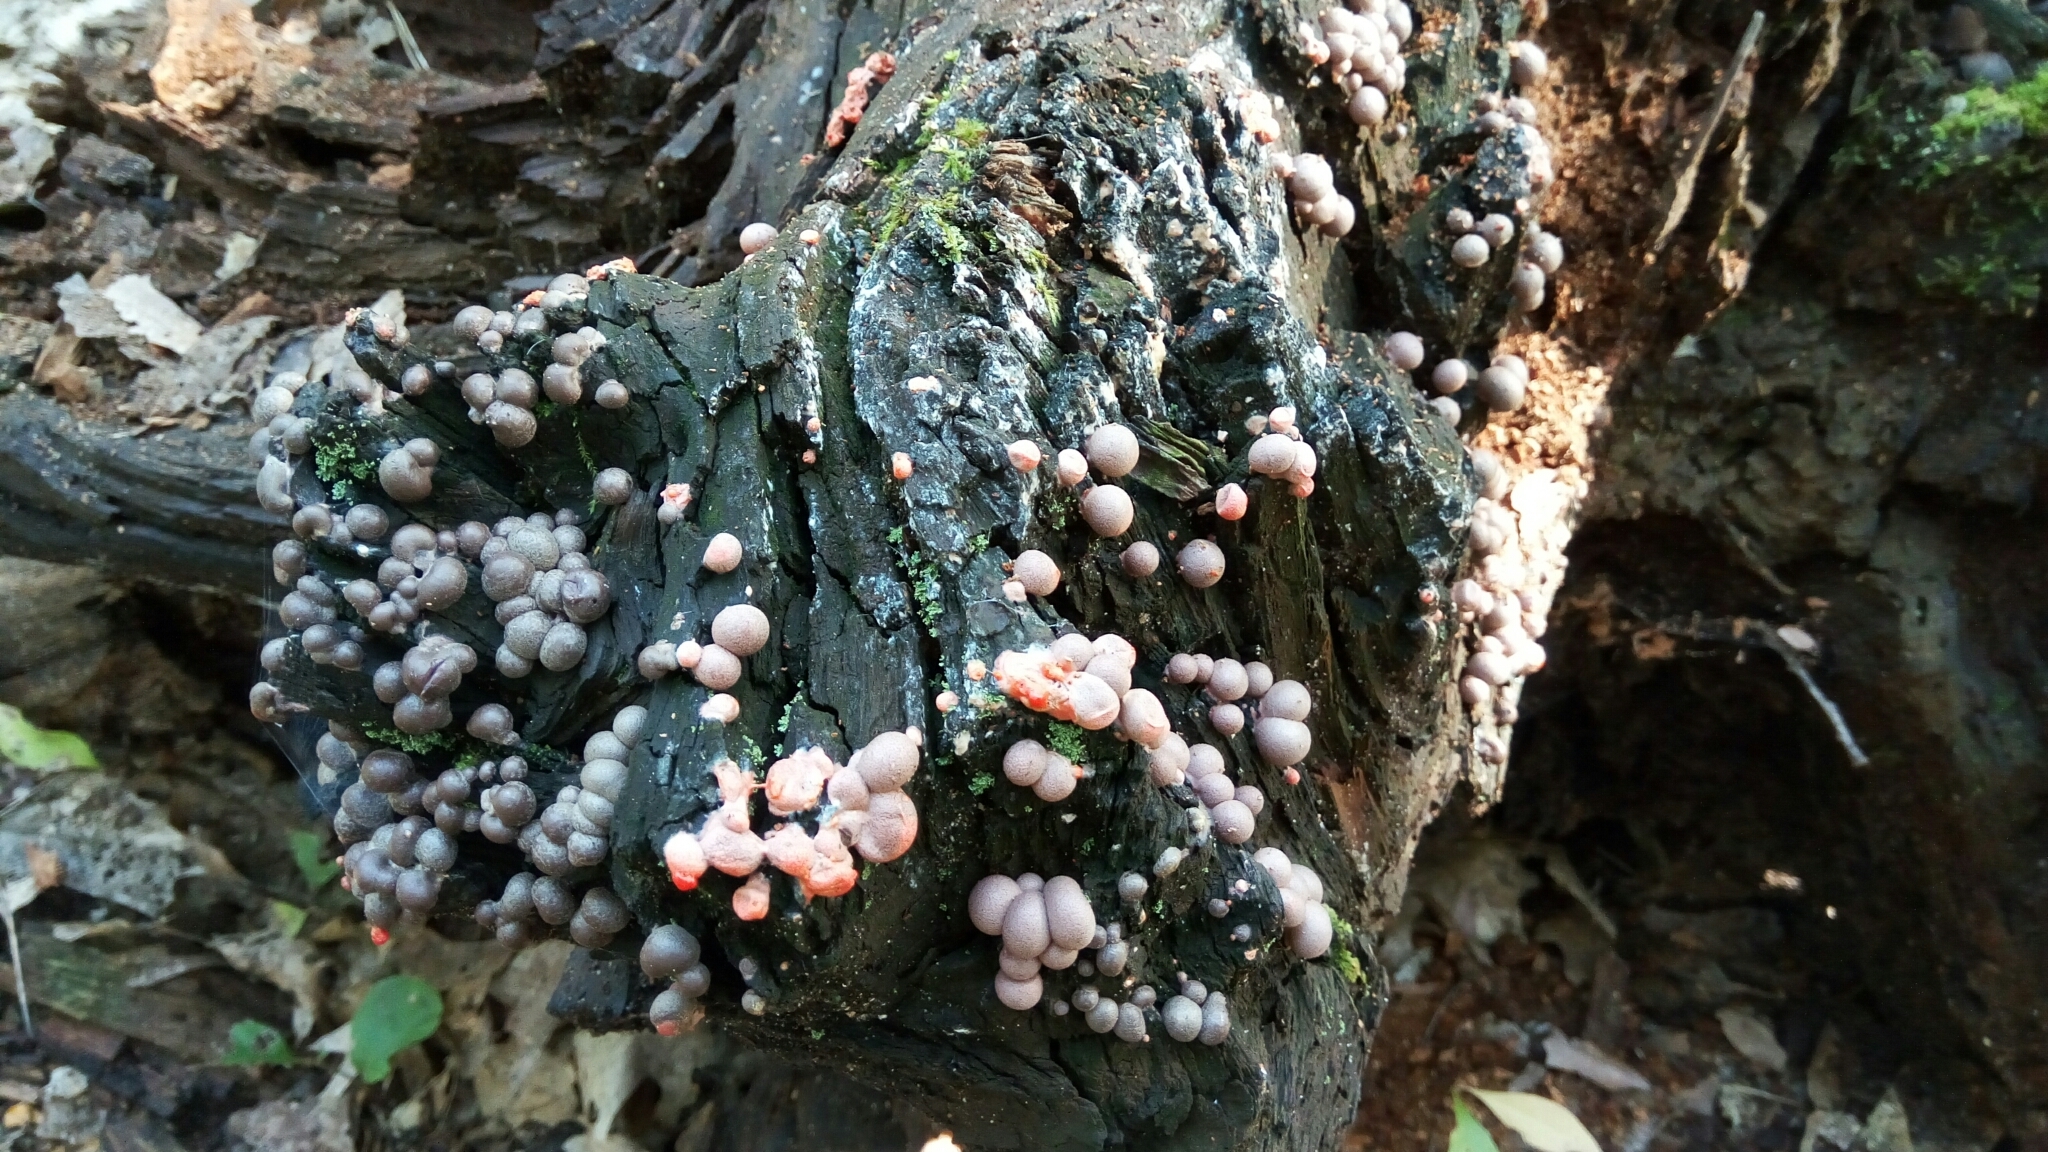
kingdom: Protozoa
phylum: Mycetozoa
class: Myxomycetes
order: Cribrariales
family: Tubiferaceae
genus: Lycogala
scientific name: Lycogala epidendrum
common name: Wolf's milk
